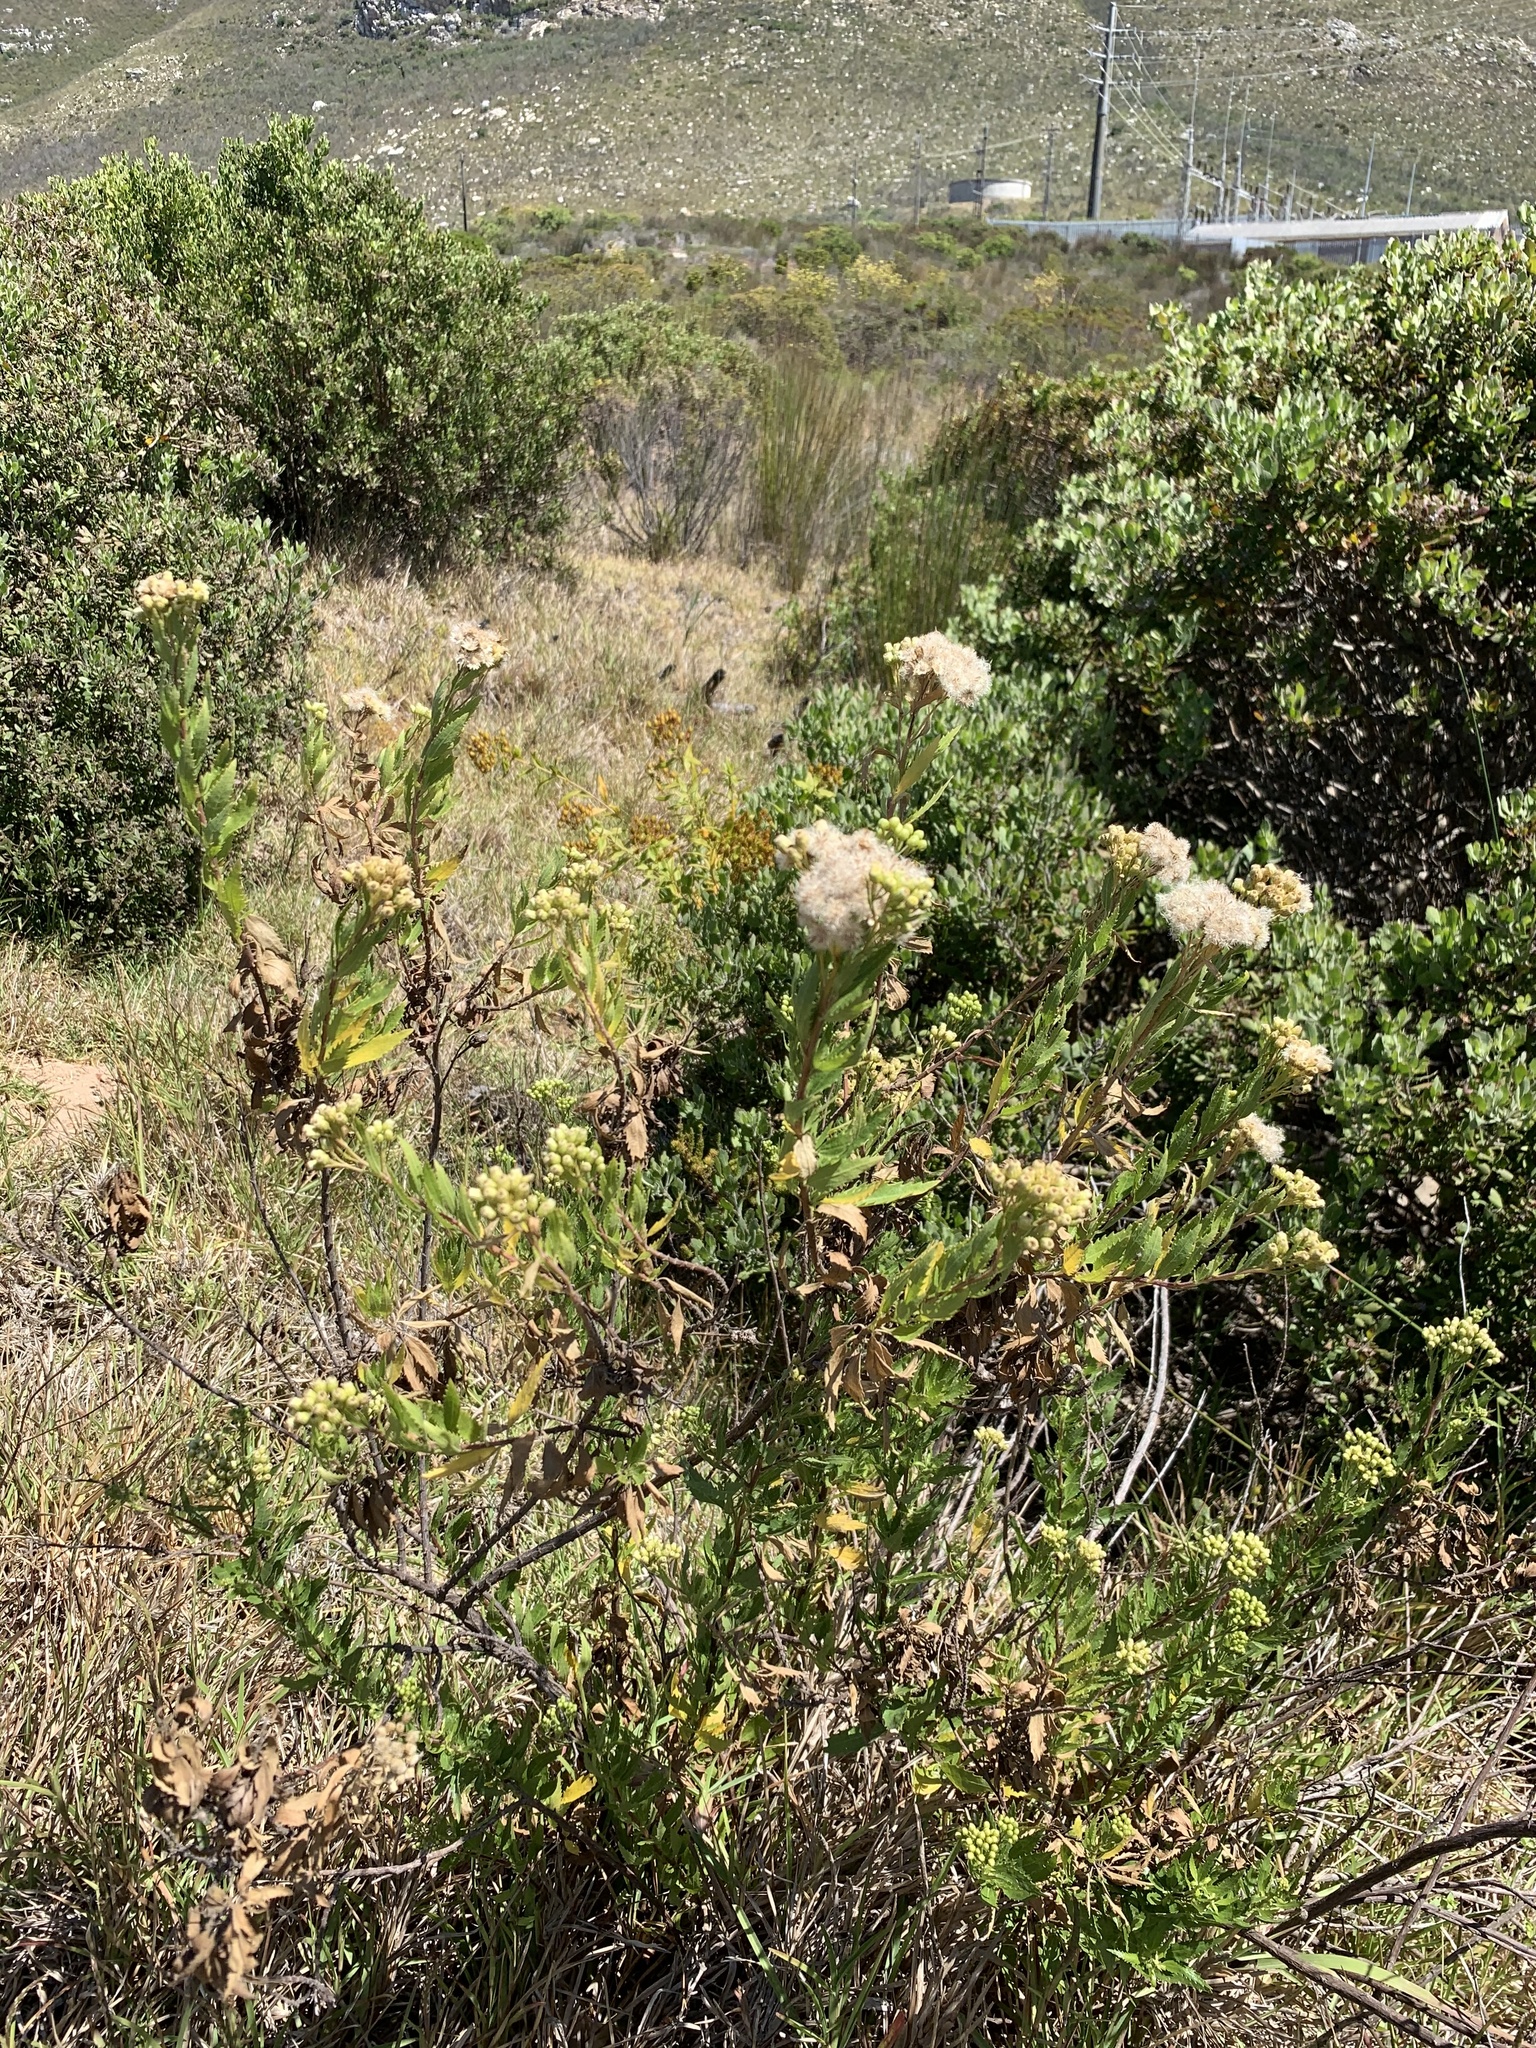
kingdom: Plantae
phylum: Tracheophyta
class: Magnoliopsida
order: Asterales
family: Asteraceae
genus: Nidorella
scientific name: Nidorella ivifolia
